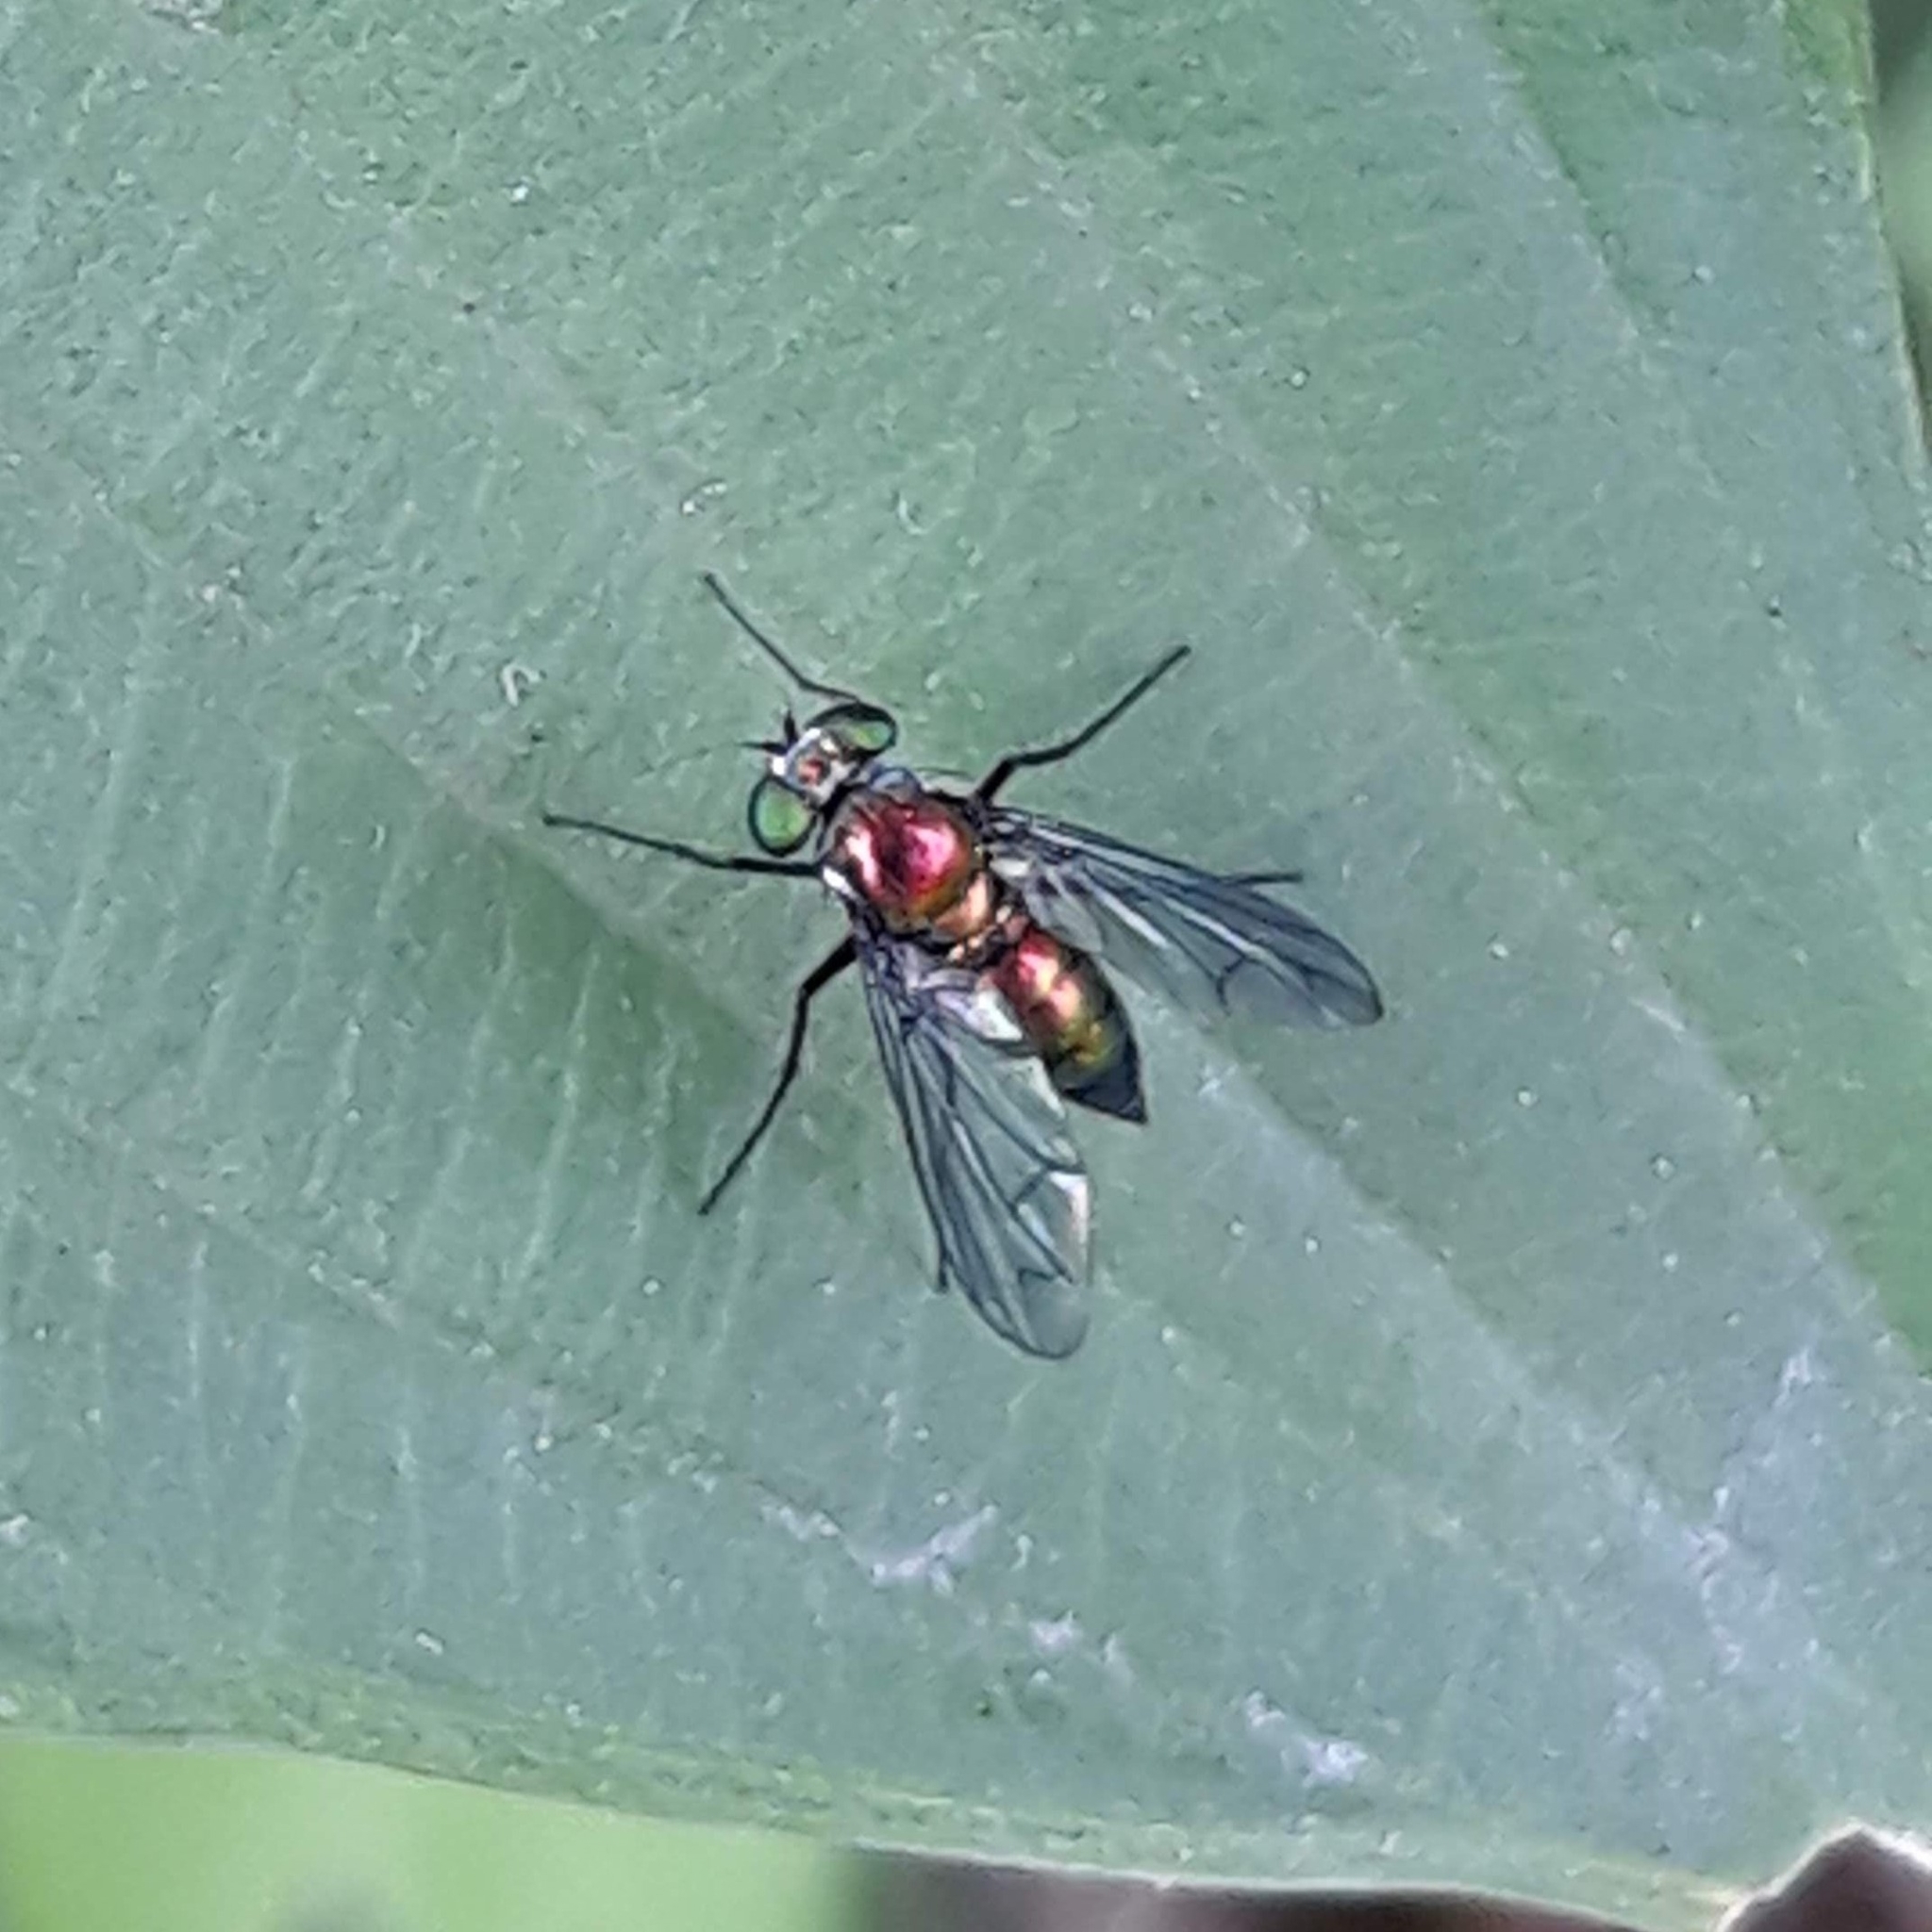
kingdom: Animalia
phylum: Arthropoda
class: Insecta
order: Diptera
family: Dolichopodidae
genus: Condylostylus
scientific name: Condylostylus patibulatus
